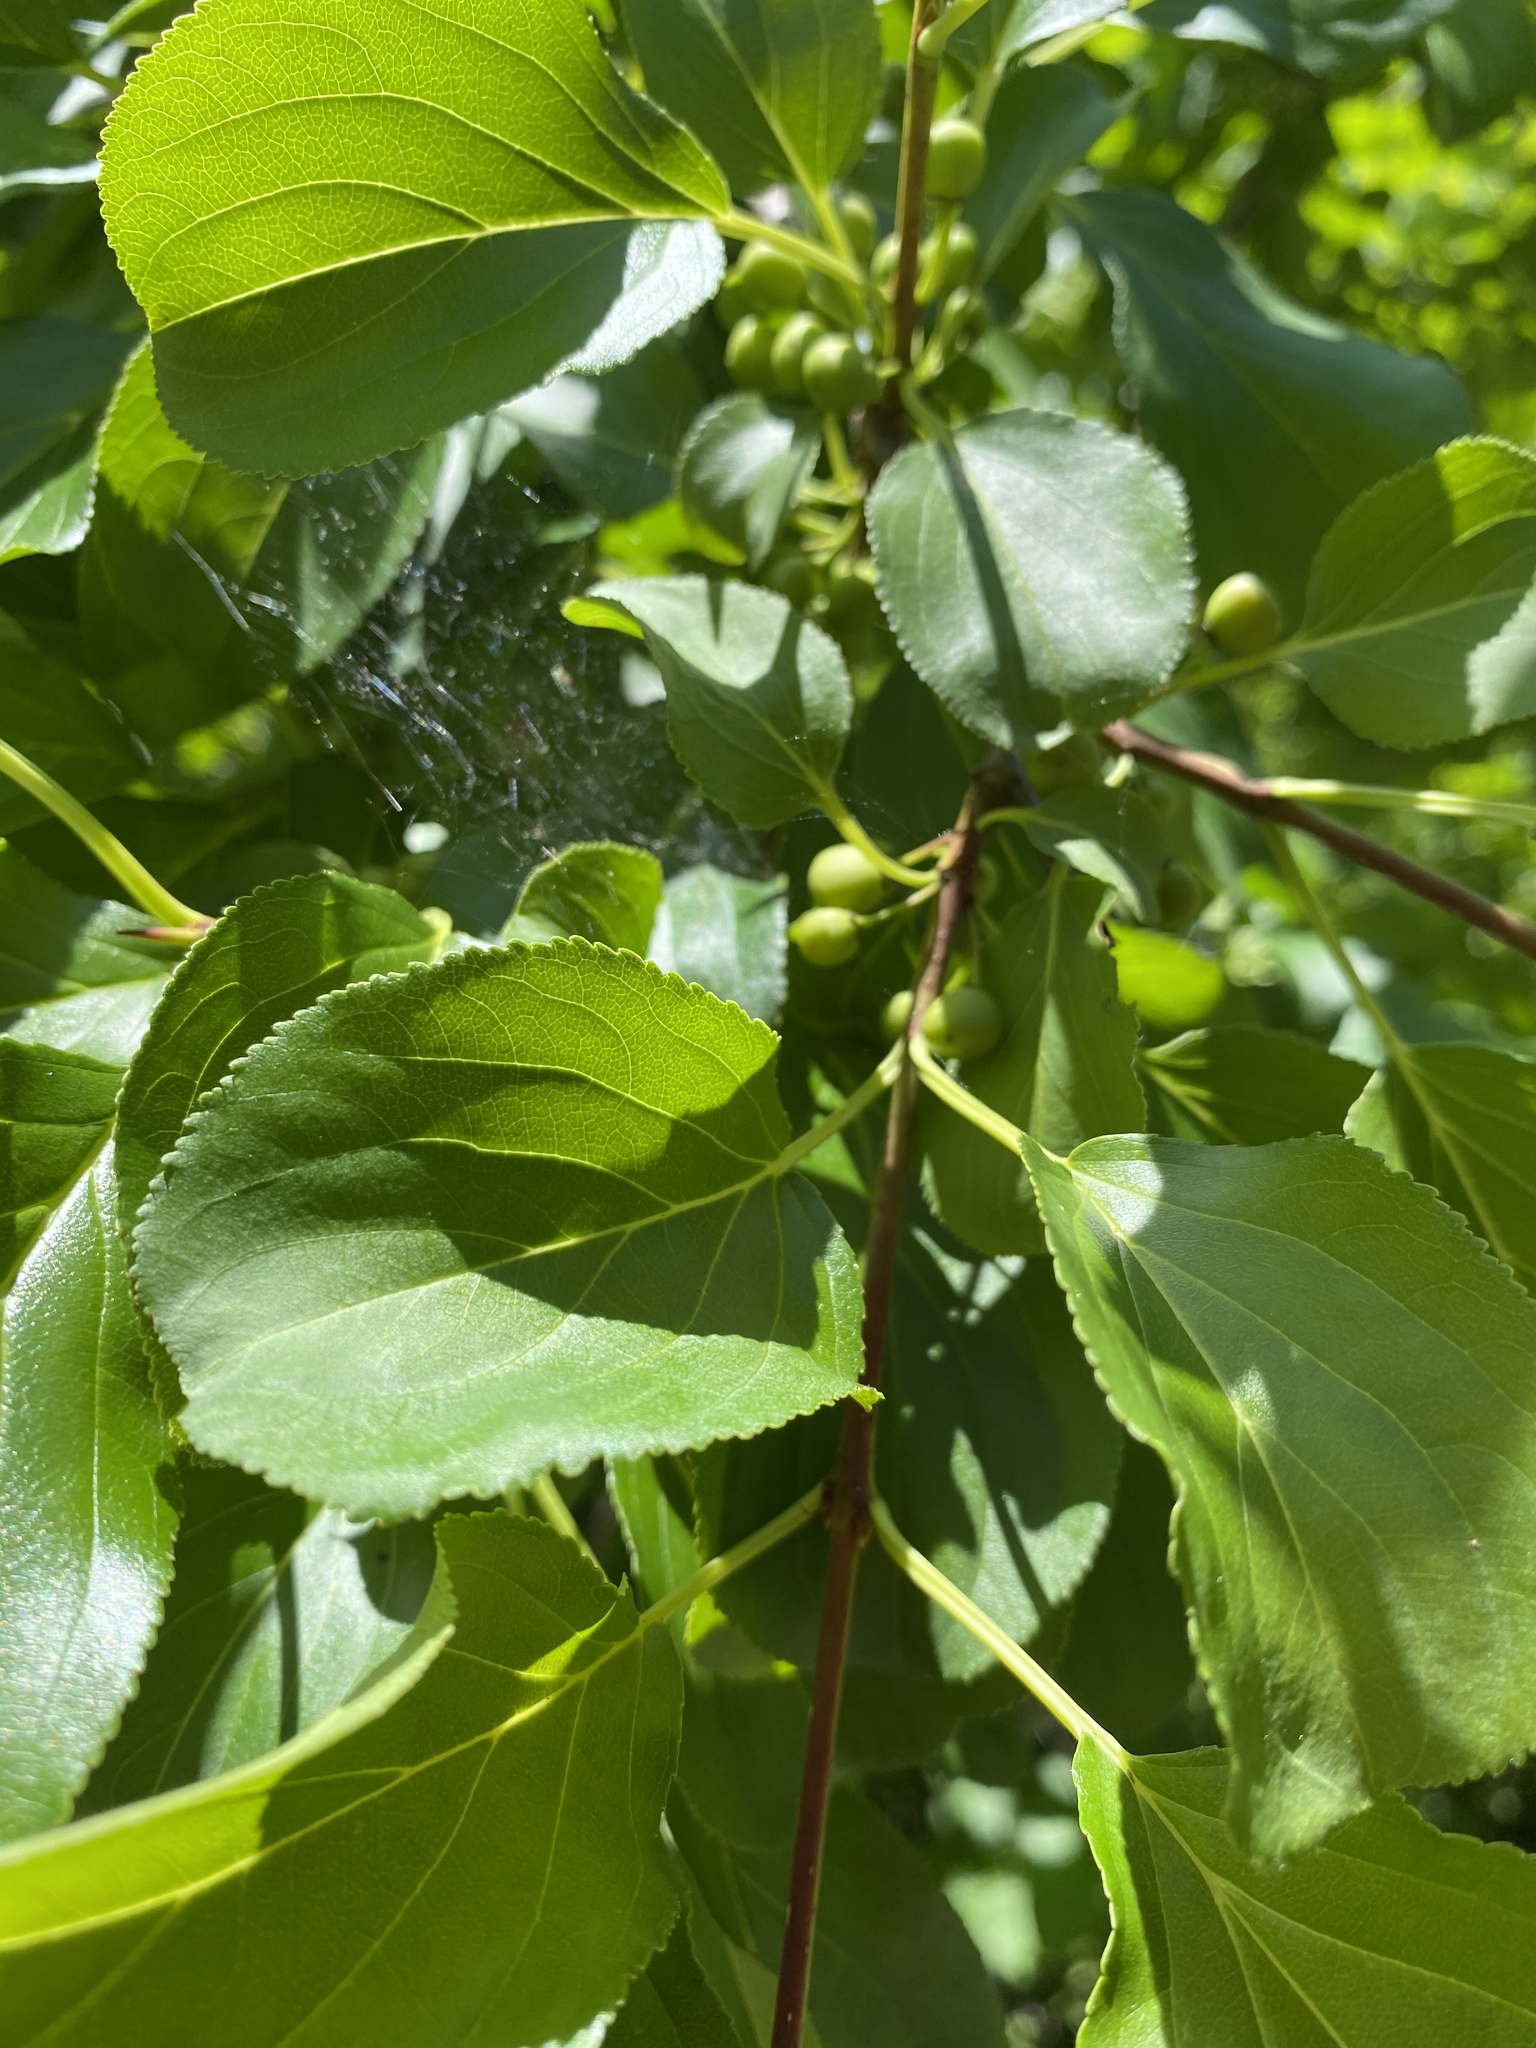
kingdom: Plantae
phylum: Tracheophyta
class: Magnoliopsida
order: Rosales
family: Rhamnaceae
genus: Rhamnus
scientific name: Rhamnus cathartica
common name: Common buckthorn
